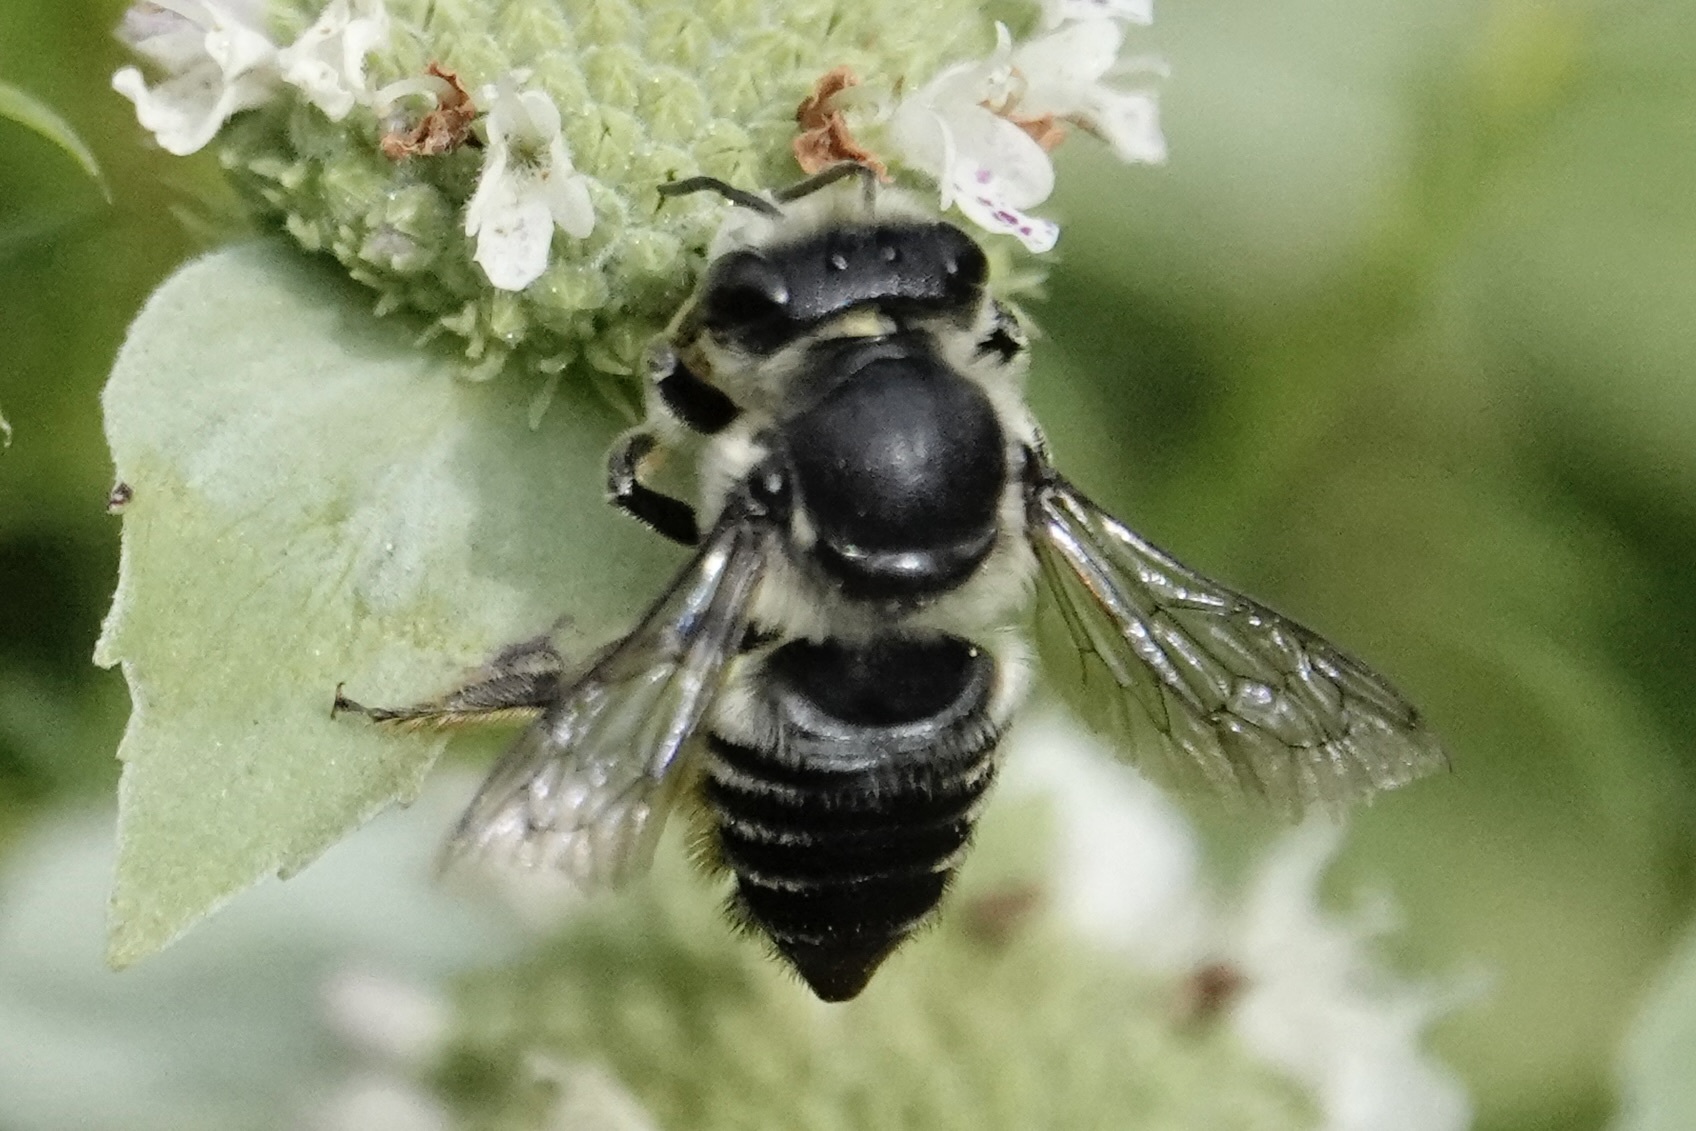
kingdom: Animalia
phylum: Arthropoda
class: Insecta
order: Hymenoptera
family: Megachilidae
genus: Megachile
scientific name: Megachile mendica
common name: Flat-tailed leafcutter
